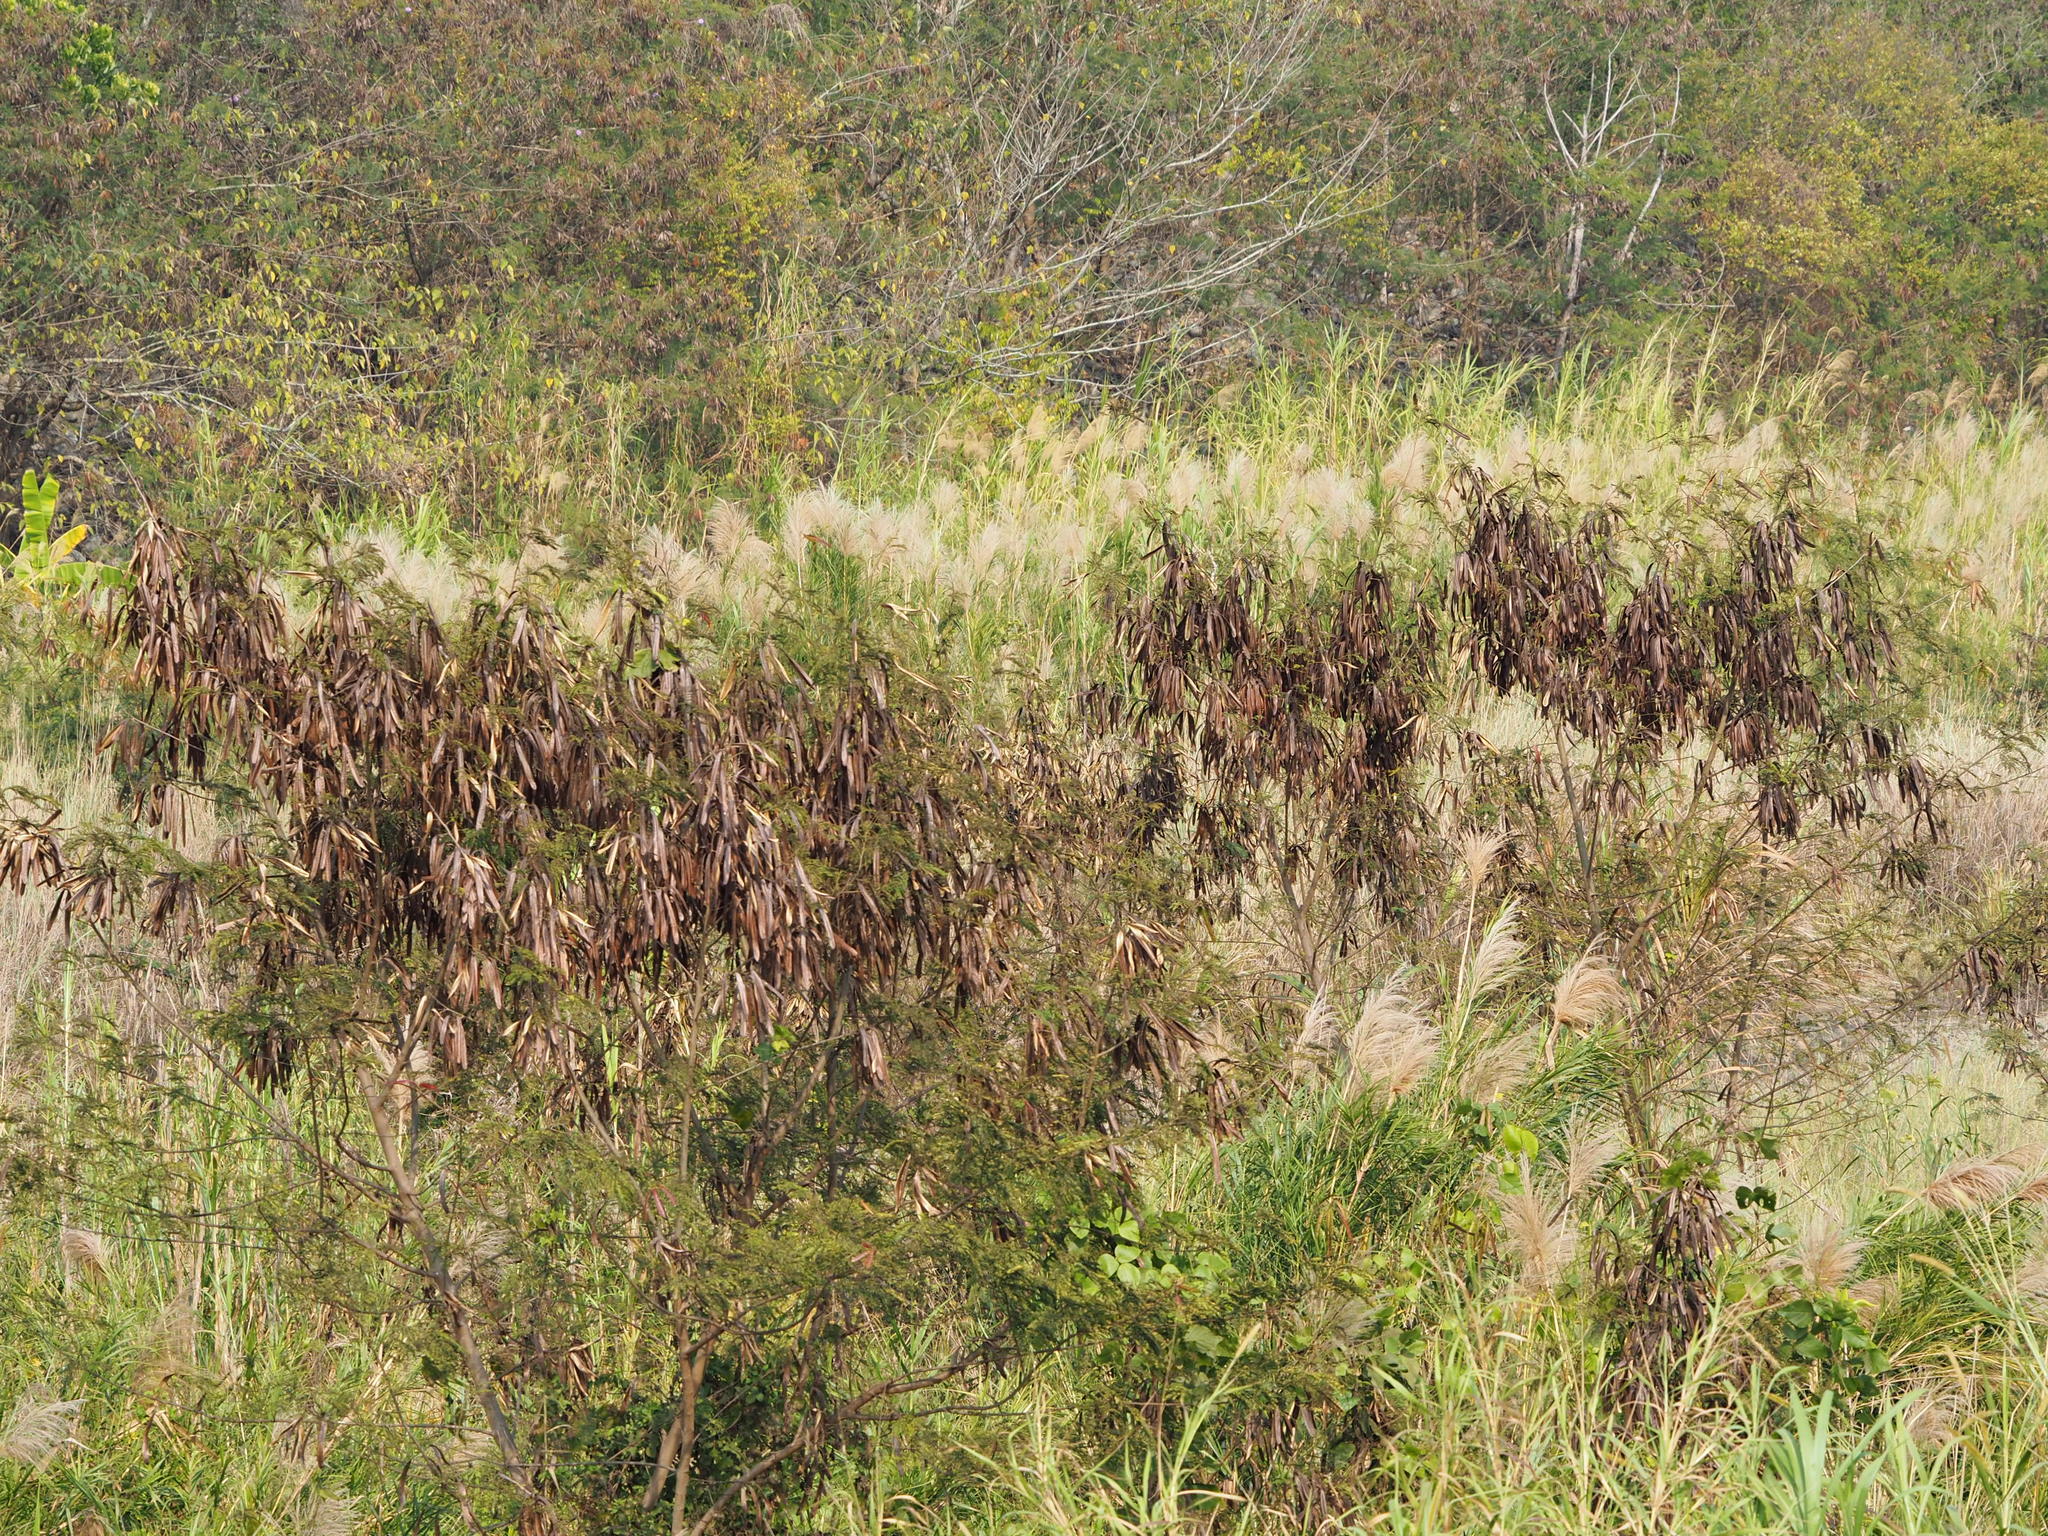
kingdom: Plantae
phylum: Tracheophyta
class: Magnoliopsida
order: Fabales
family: Fabaceae
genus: Leucaena
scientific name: Leucaena leucocephala
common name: White leadtree
